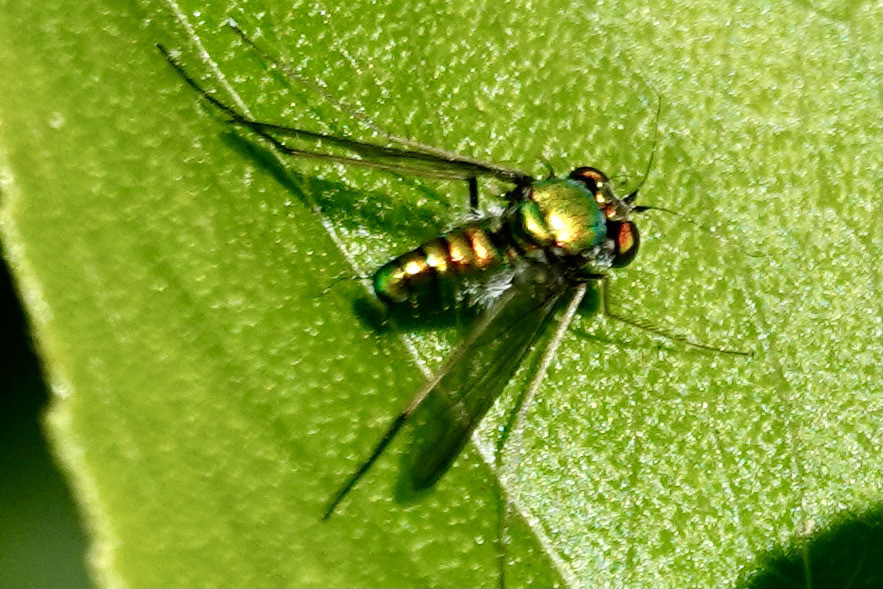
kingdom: Animalia
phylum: Arthropoda
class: Insecta
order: Diptera
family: Dolichopodidae
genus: Condylostylus
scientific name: Condylostylus comatus
